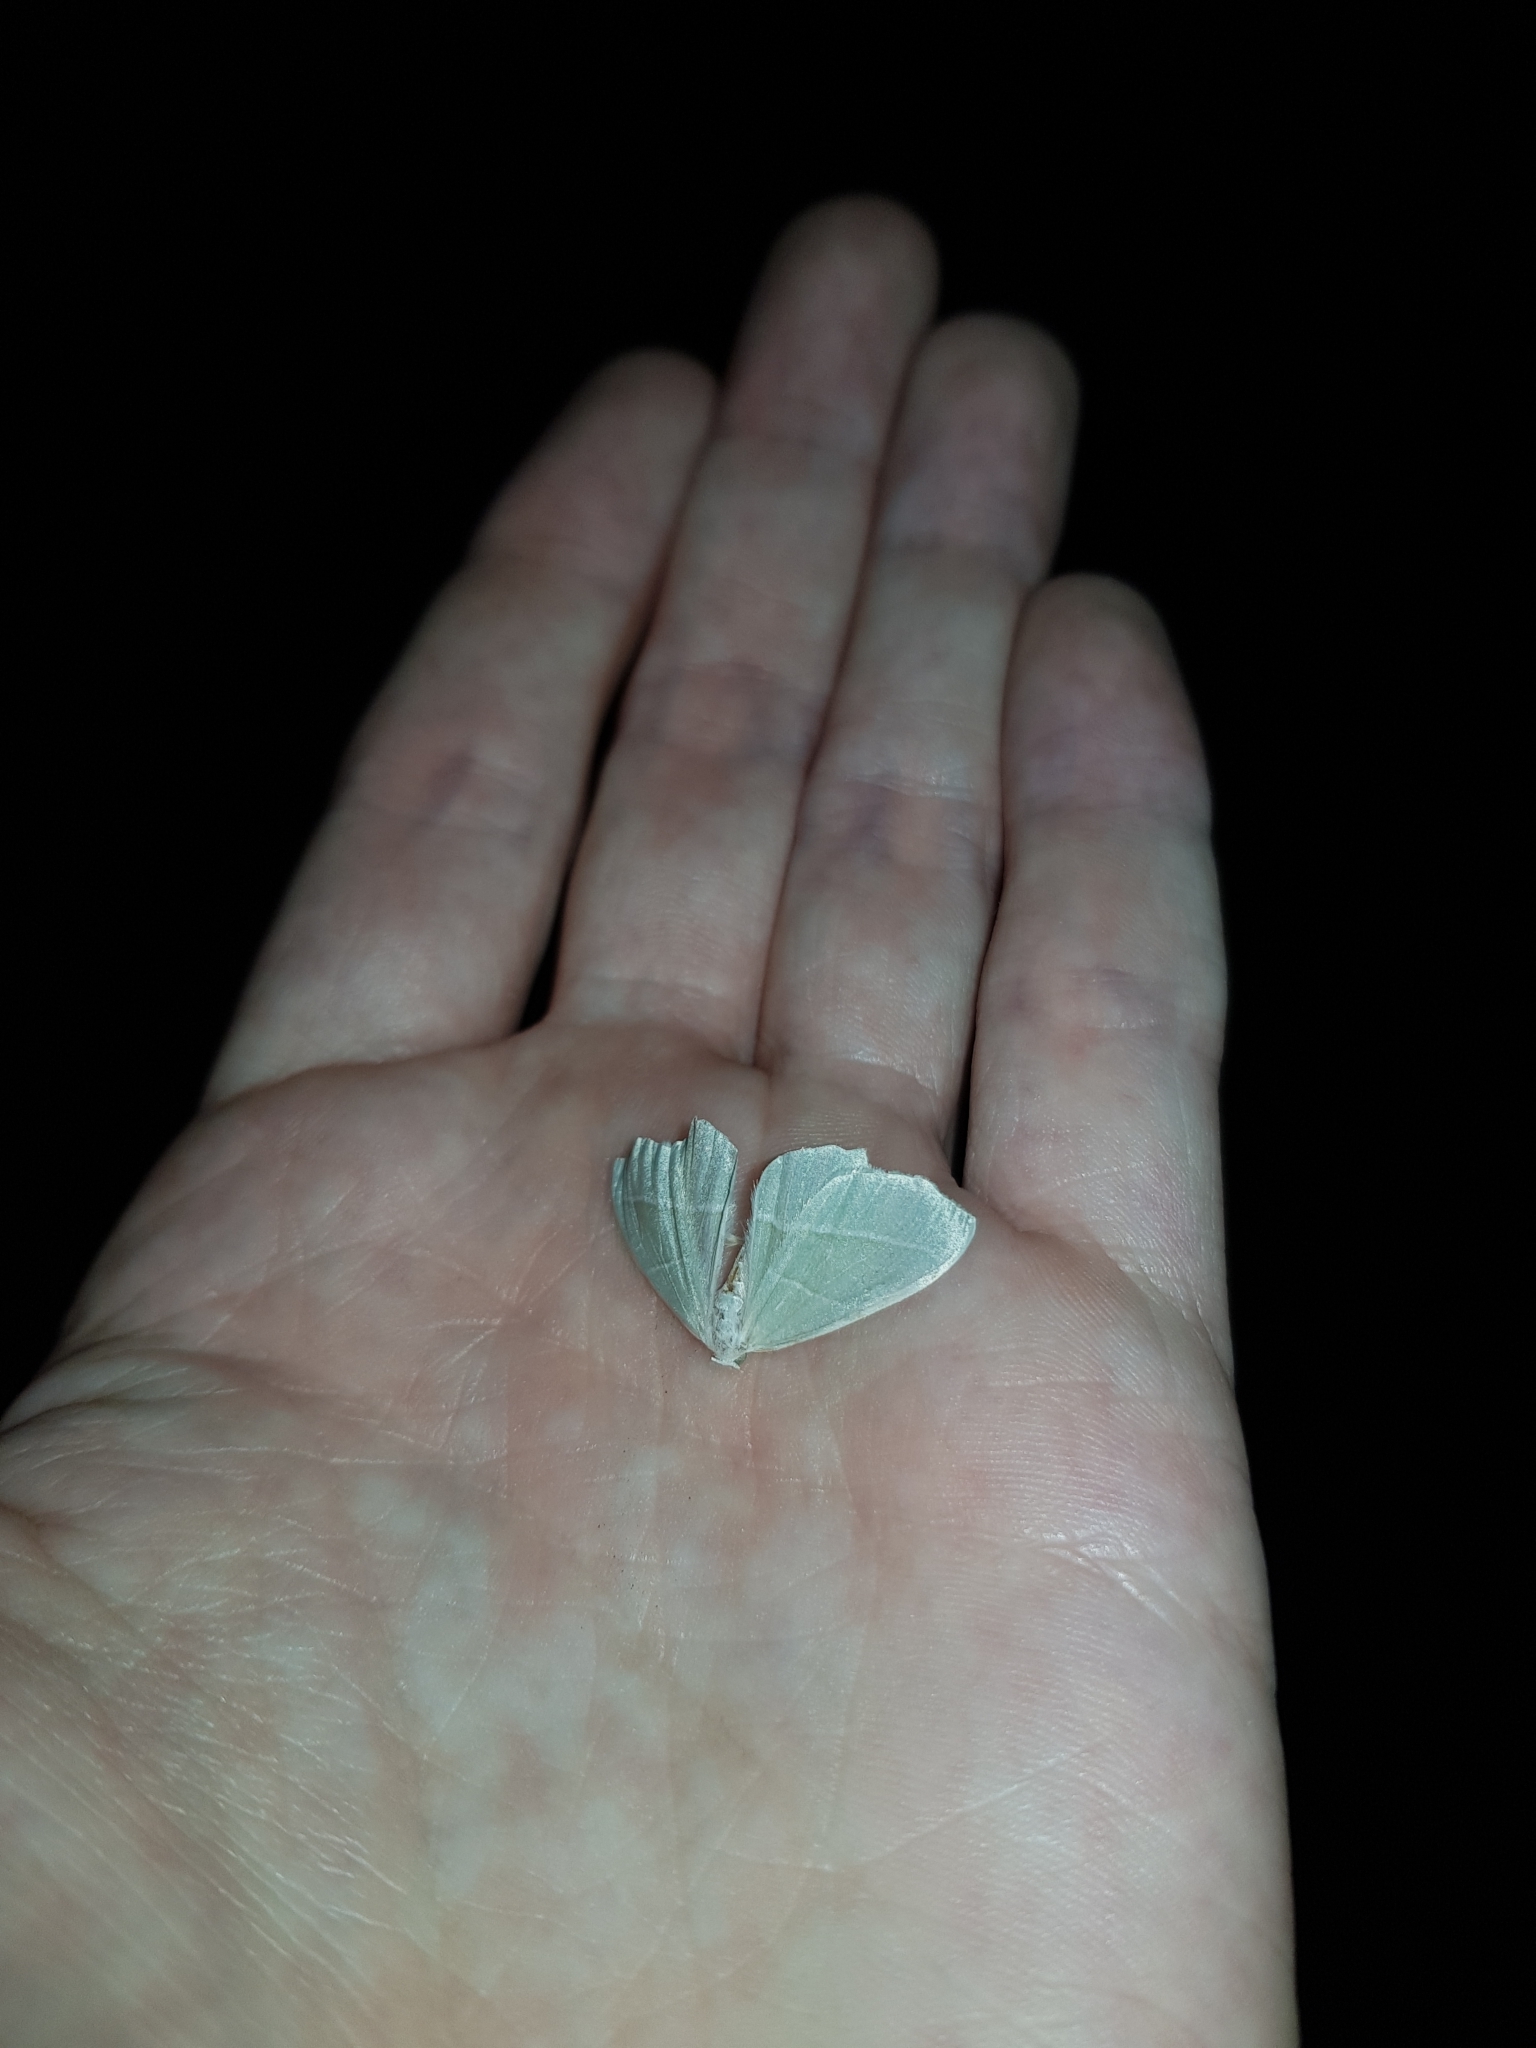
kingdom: Animalia
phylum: Arthropoda
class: Insecta
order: Lepidoptera
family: Geometridae
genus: Campaea
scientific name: Campaea margaritaria
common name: Light emerald
